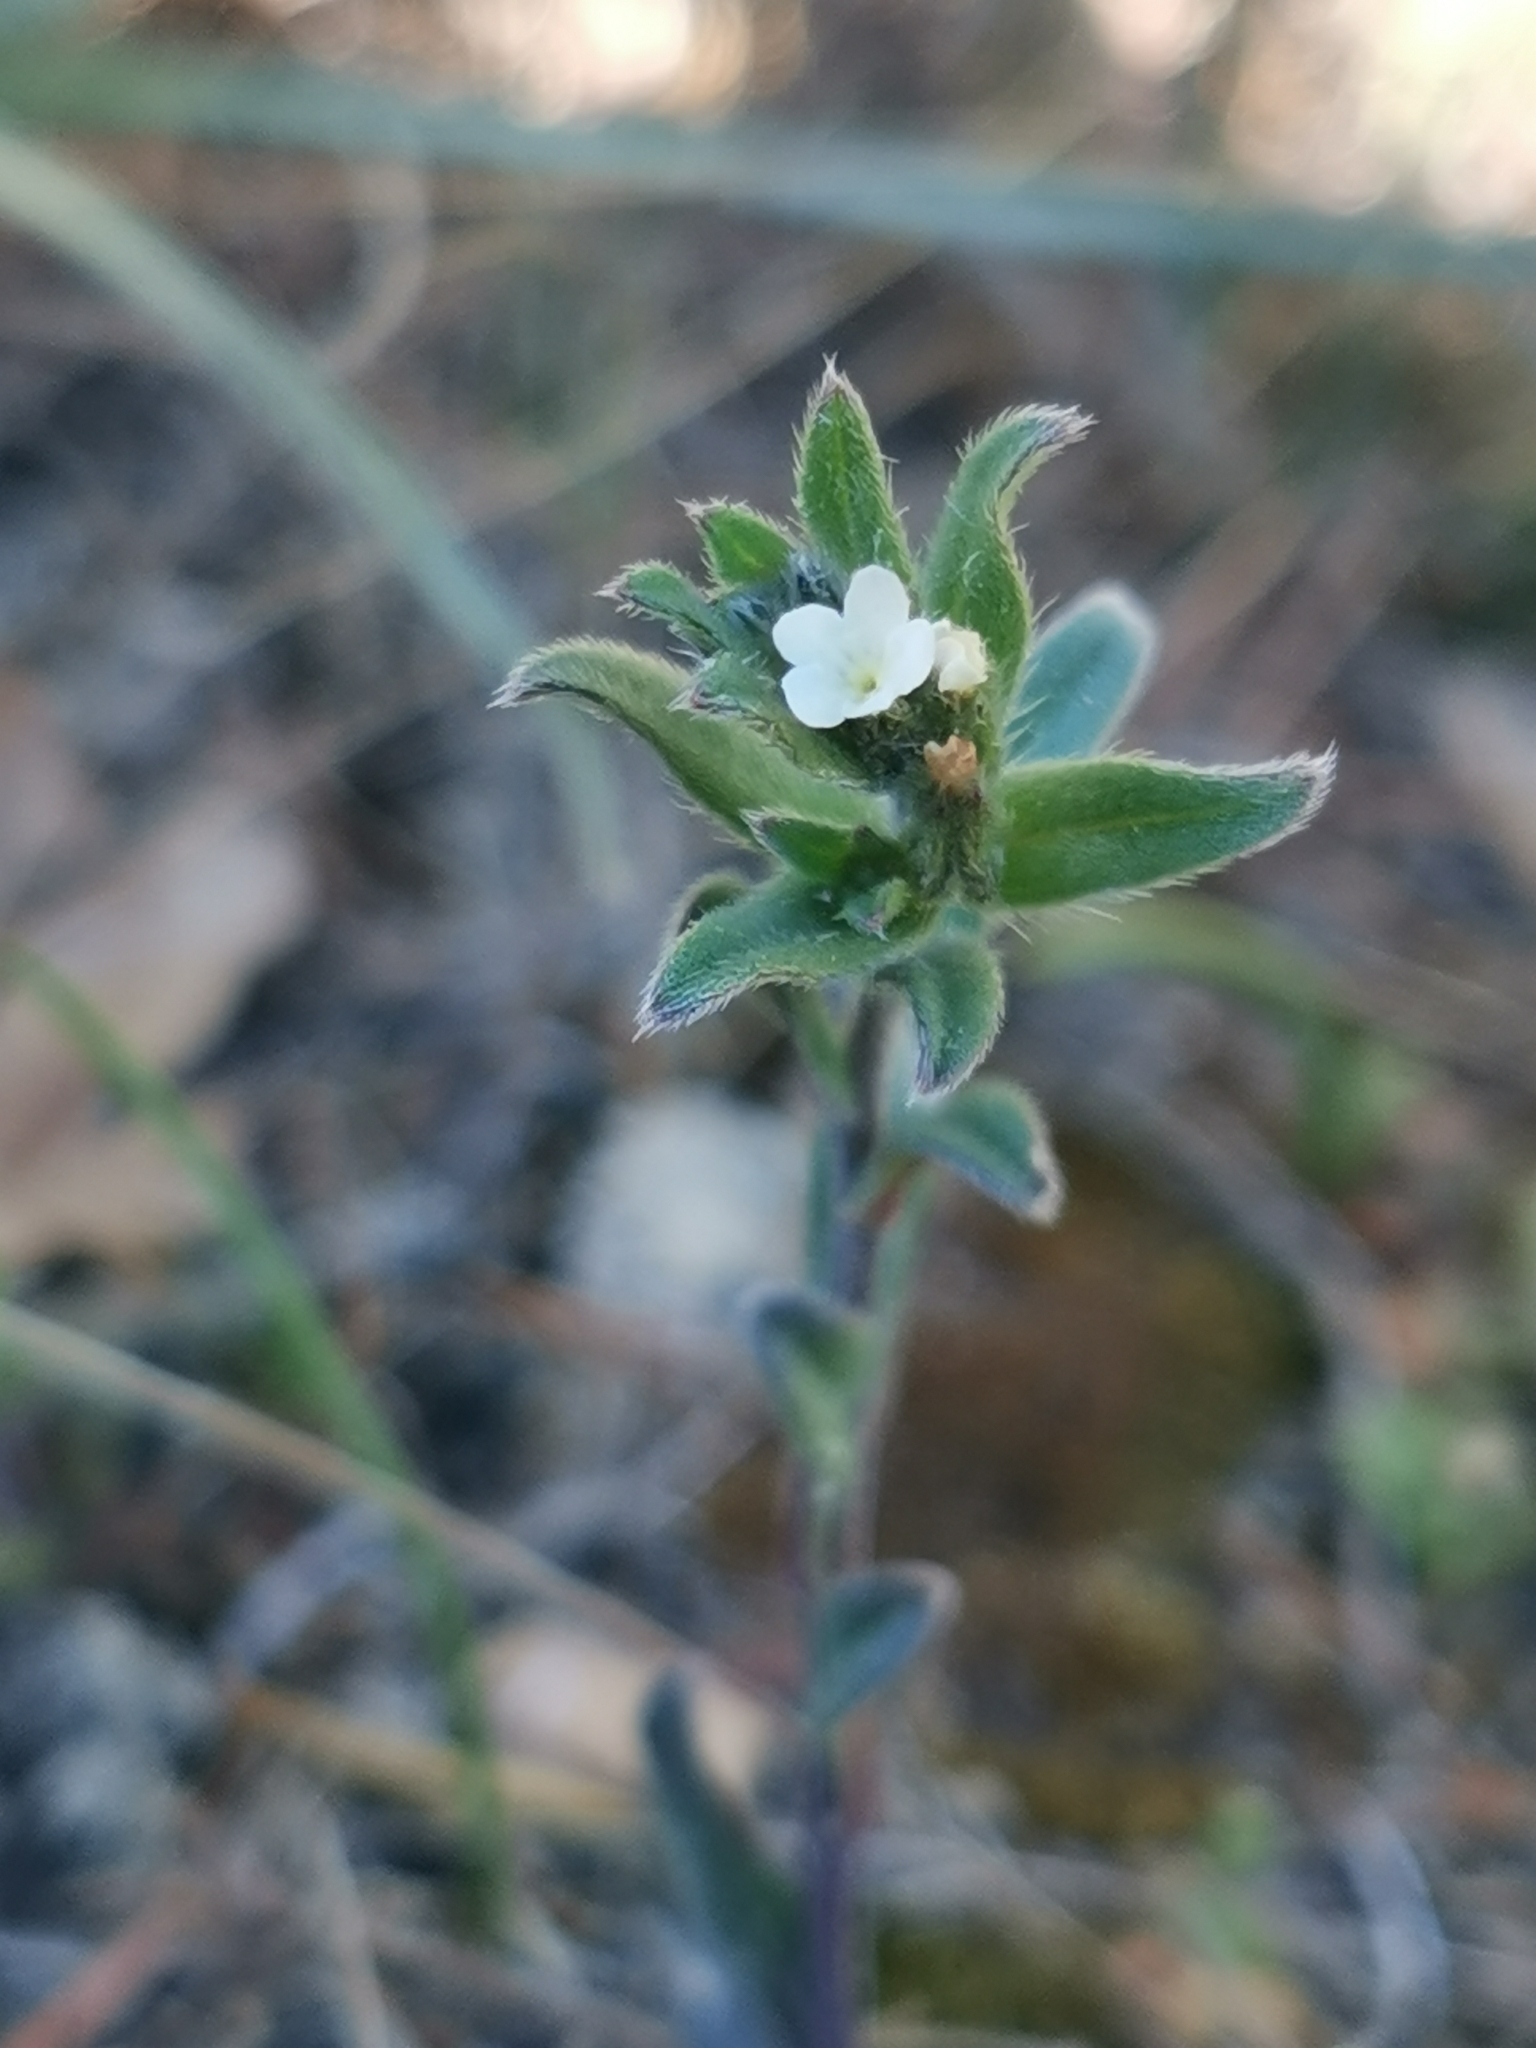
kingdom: Plantae
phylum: Tracheophyta
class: Magnoliopsida
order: Boraginales
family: Boraginaceae
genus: Buglossoides
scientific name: Buglossoides arvensis
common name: Corn gromwell
